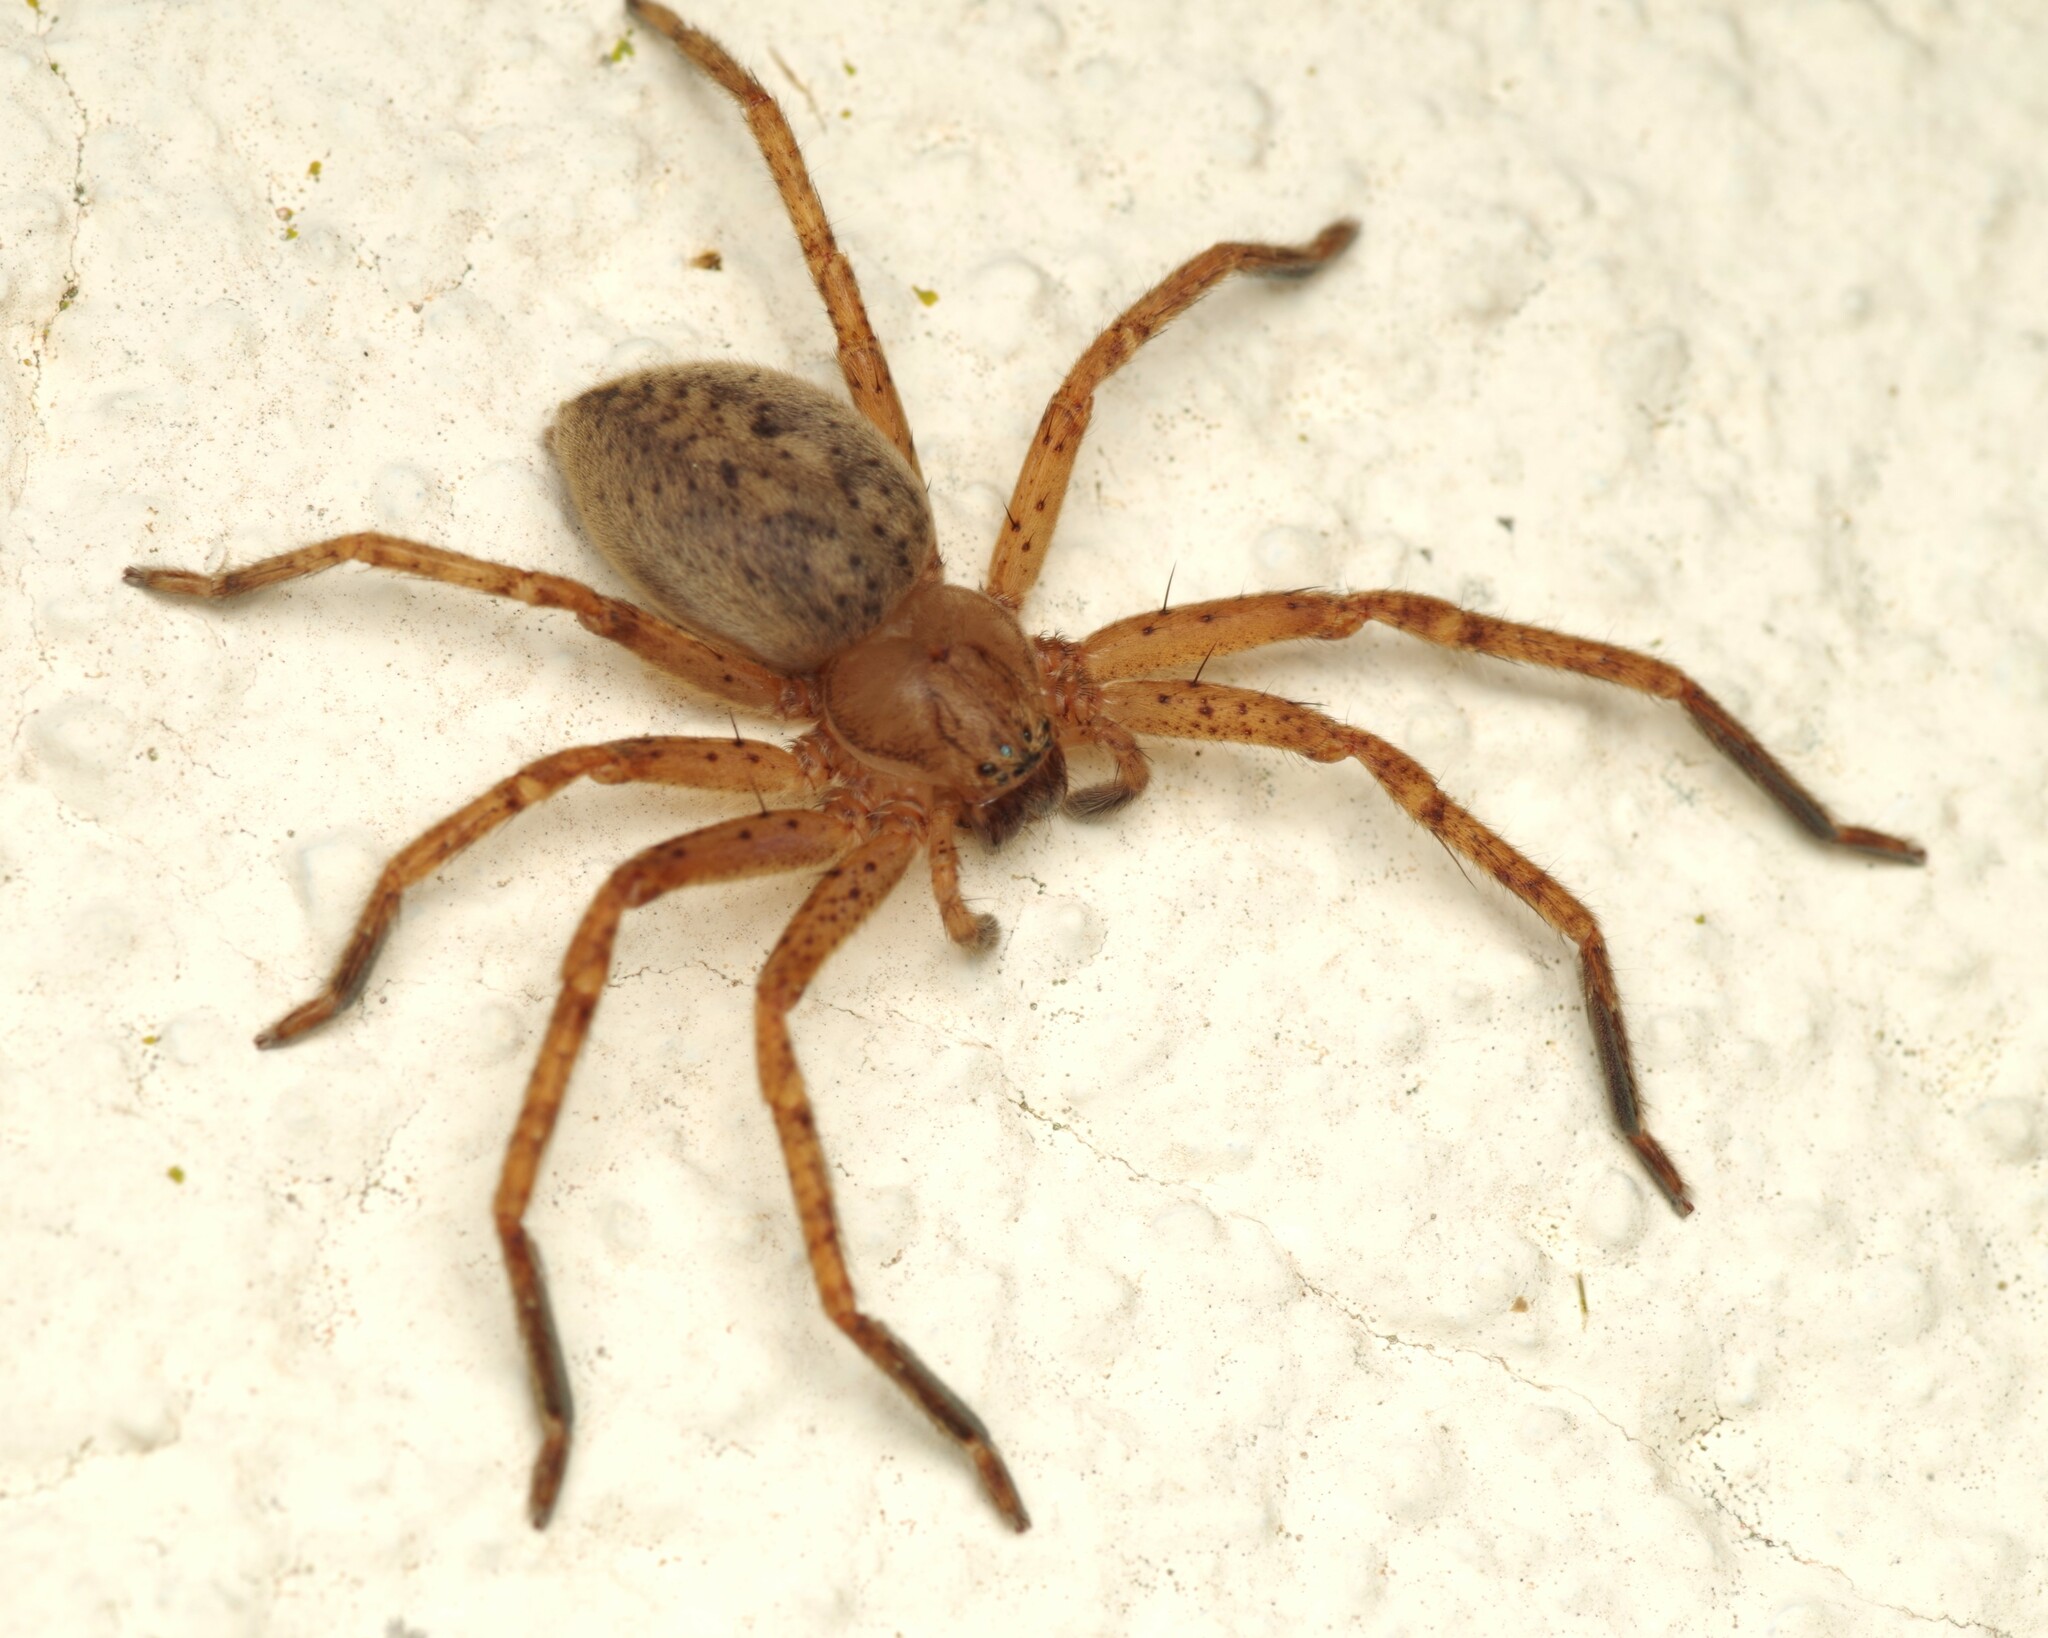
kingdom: Animalia
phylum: Arthropoda
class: Arachnida
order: Araneae
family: Sparassidae
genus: Olios
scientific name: Olios argelasius
